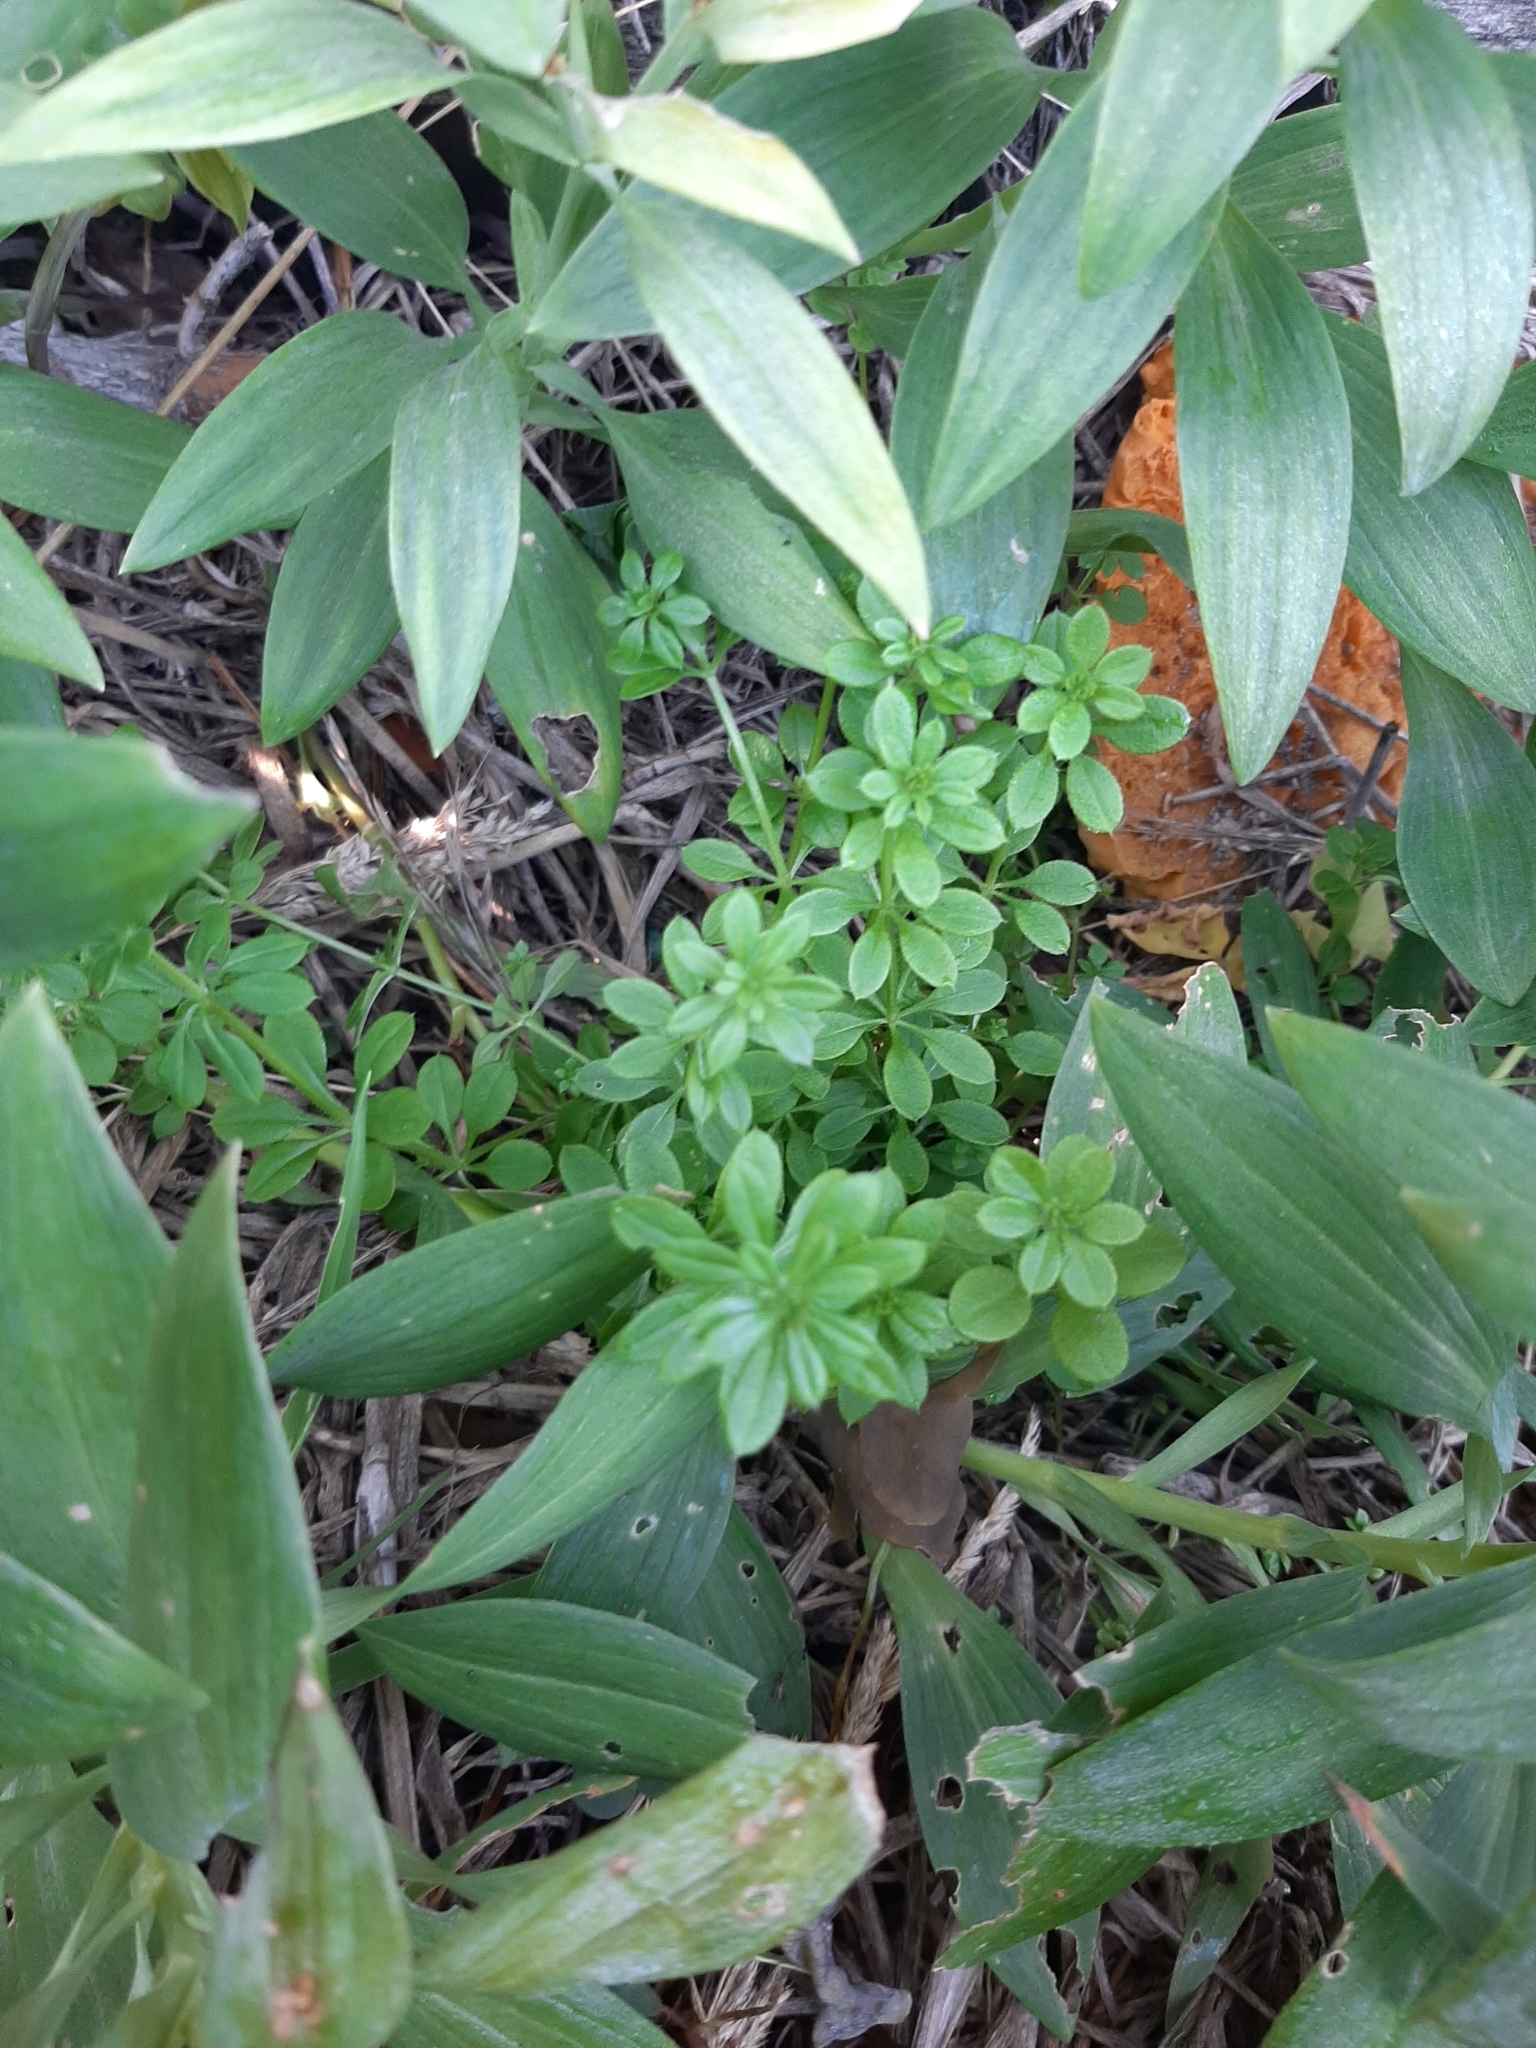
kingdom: Plantae
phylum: Tracheophyta
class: Magnoliopsida
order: Gentianales
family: Rubiaceae
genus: Galium
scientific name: Galium aparine
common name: Cleavers
